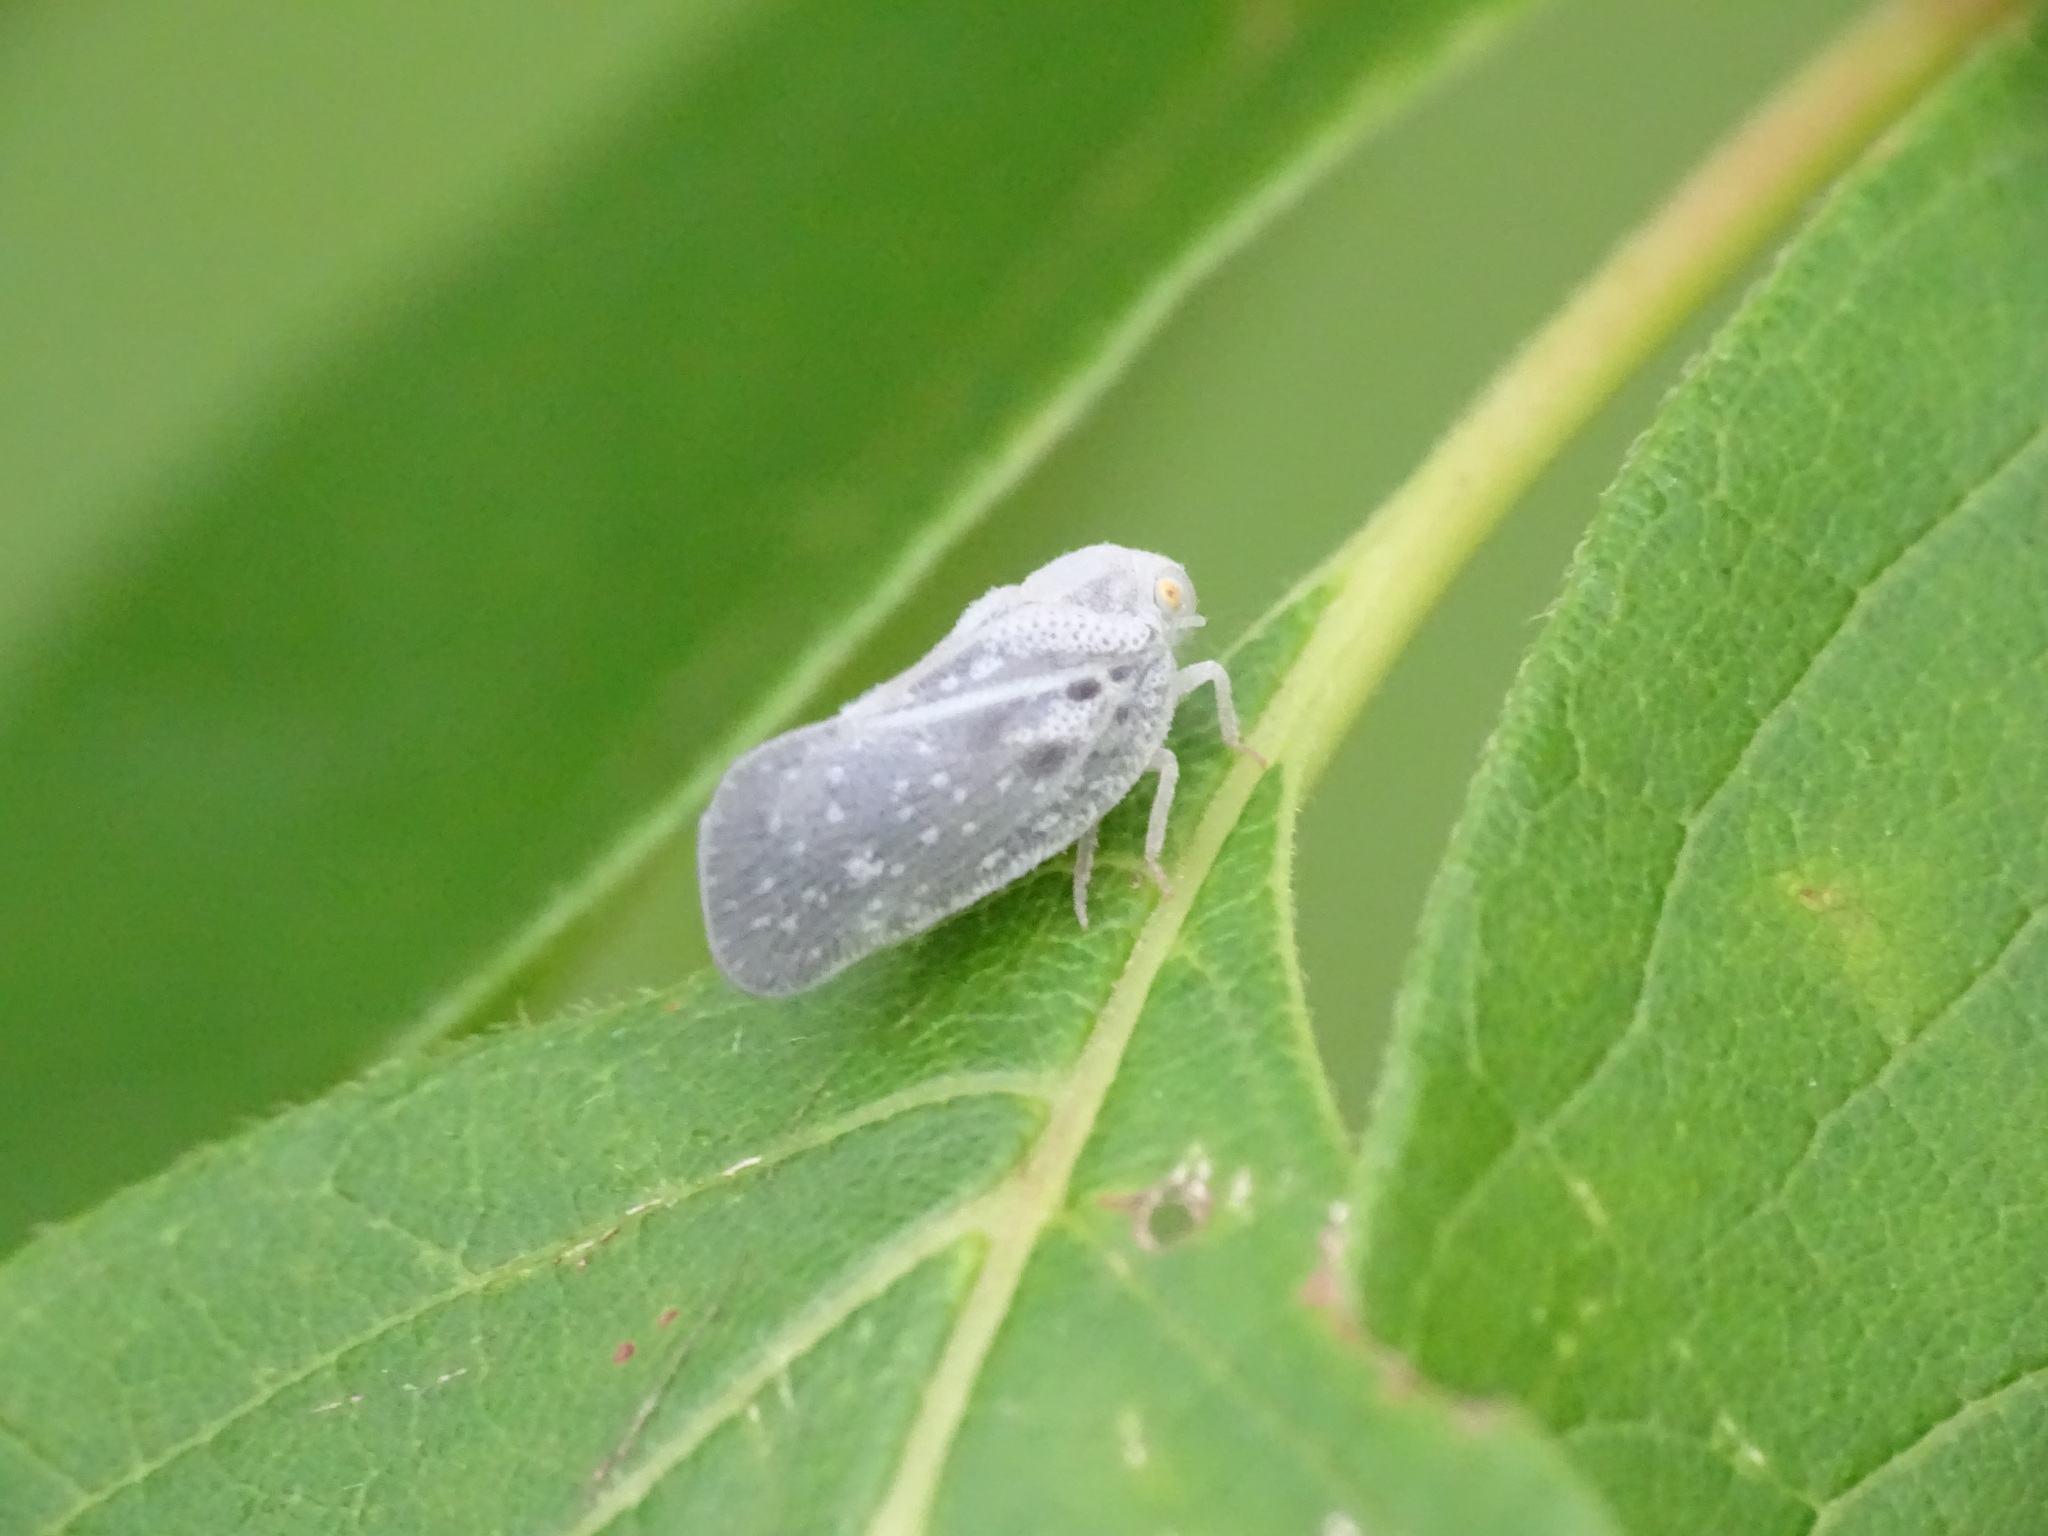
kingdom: Animalia
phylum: Arthropoda
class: Insecta
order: Hemiptera
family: Flatidae
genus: Metcalfa
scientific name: Metcalfa pruinosa
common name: Citrus flatid planthopper
